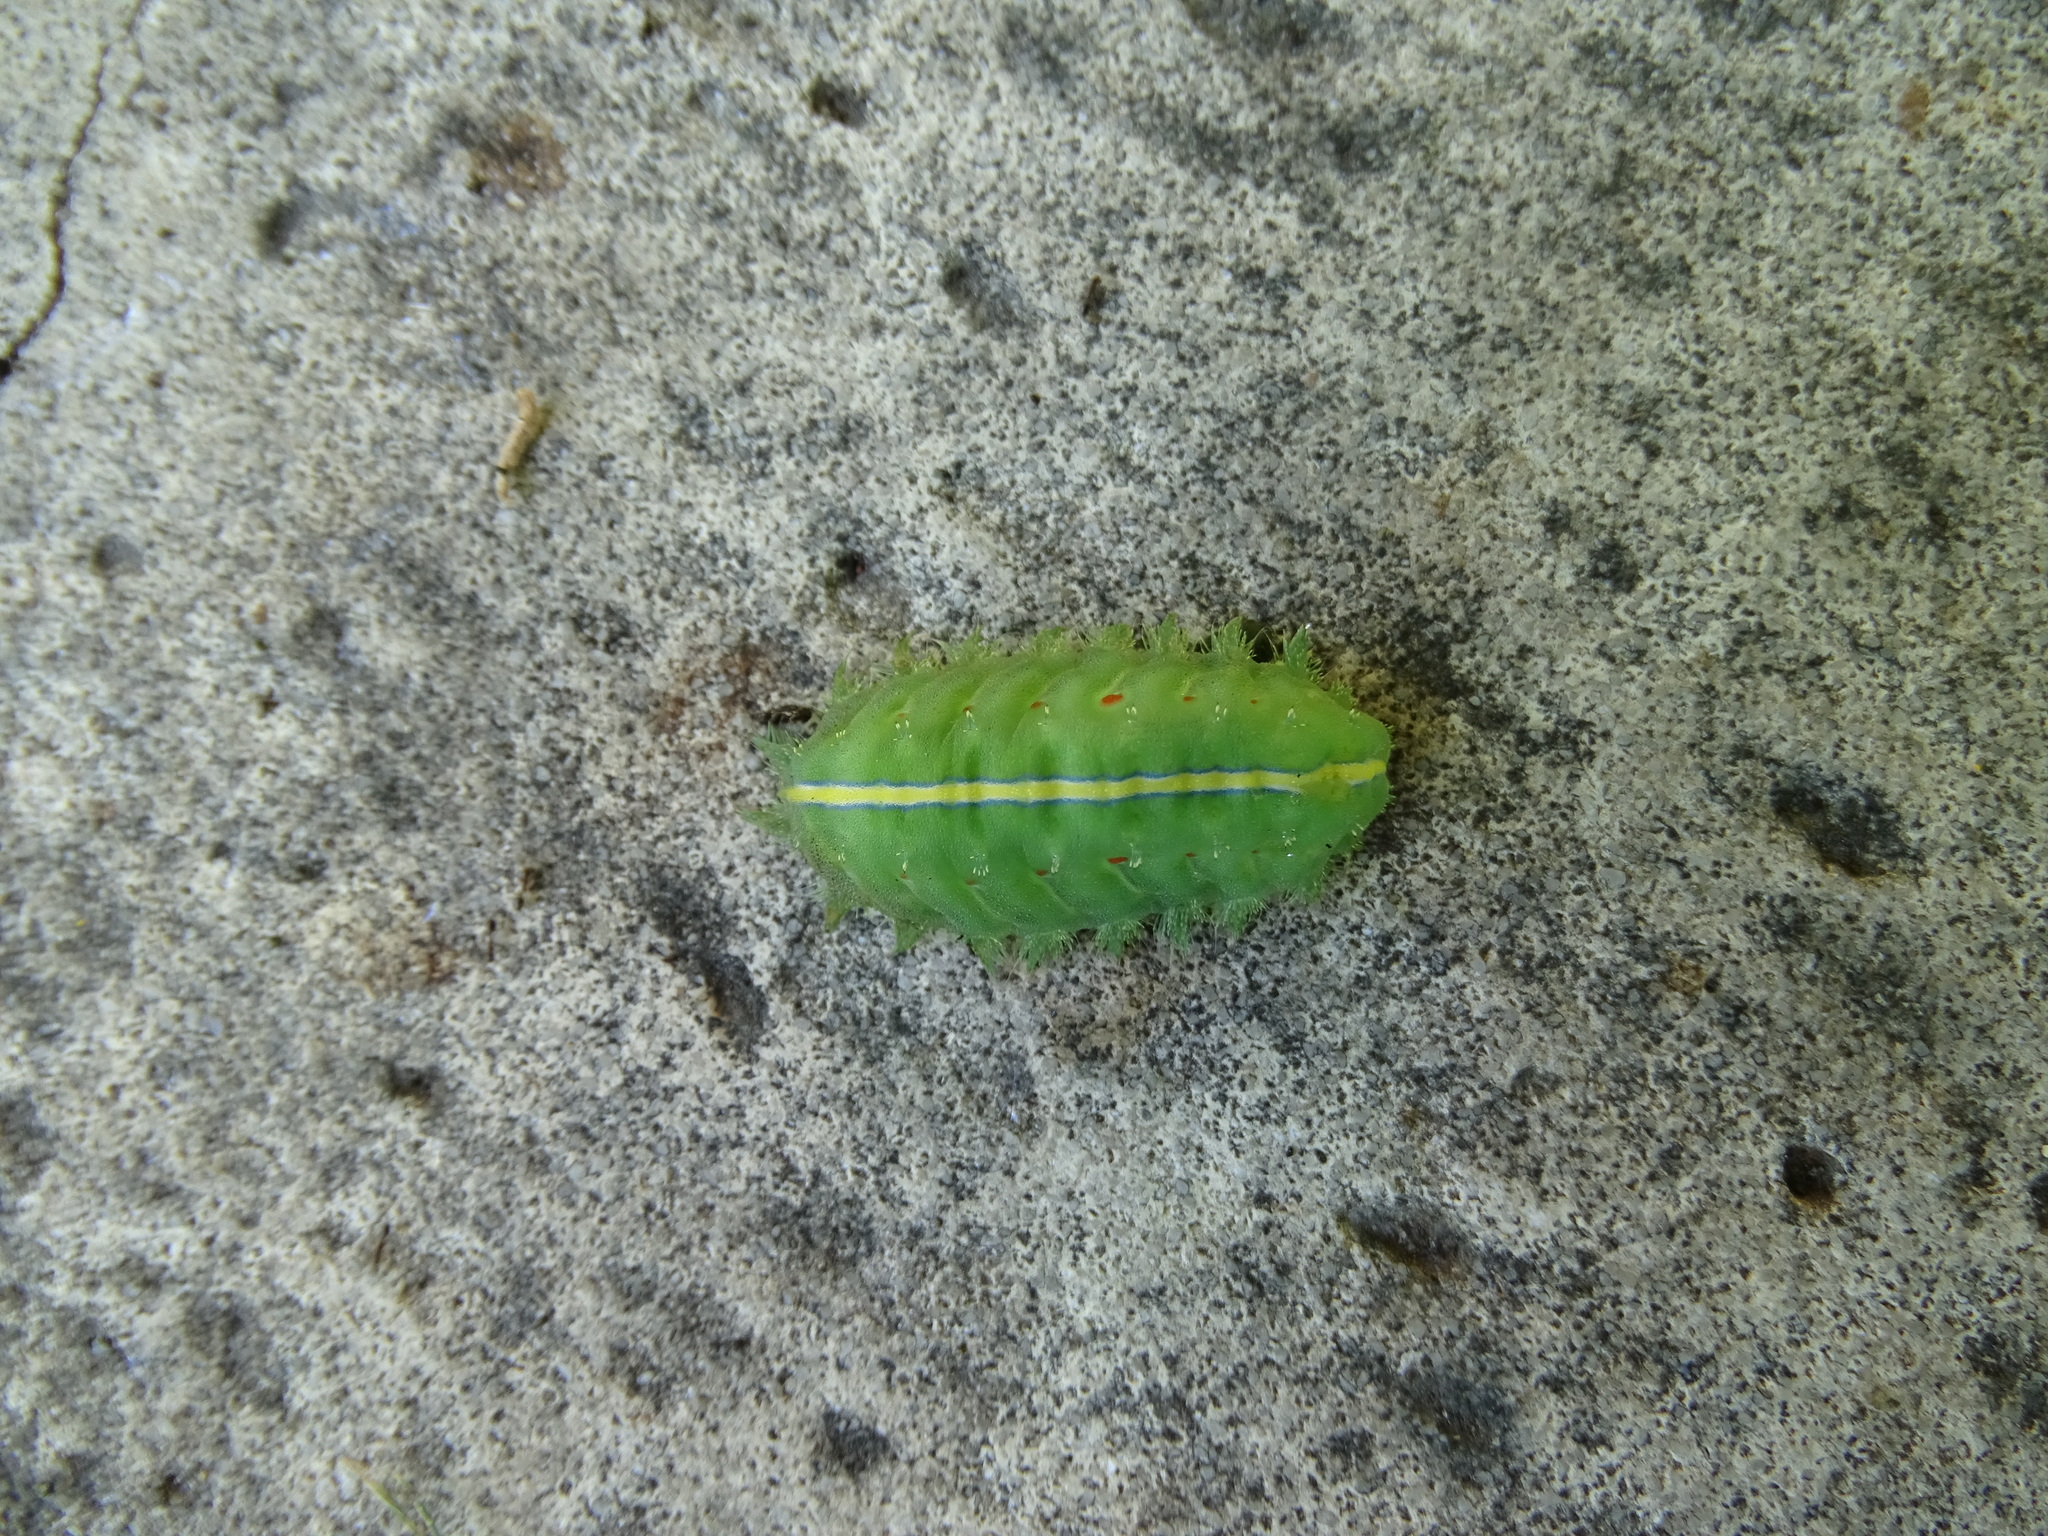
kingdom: Animalia
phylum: Arthropoda
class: Insecta
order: Lepidoptera
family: Limacodidae
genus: Thosea
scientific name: Thosea sinensis
